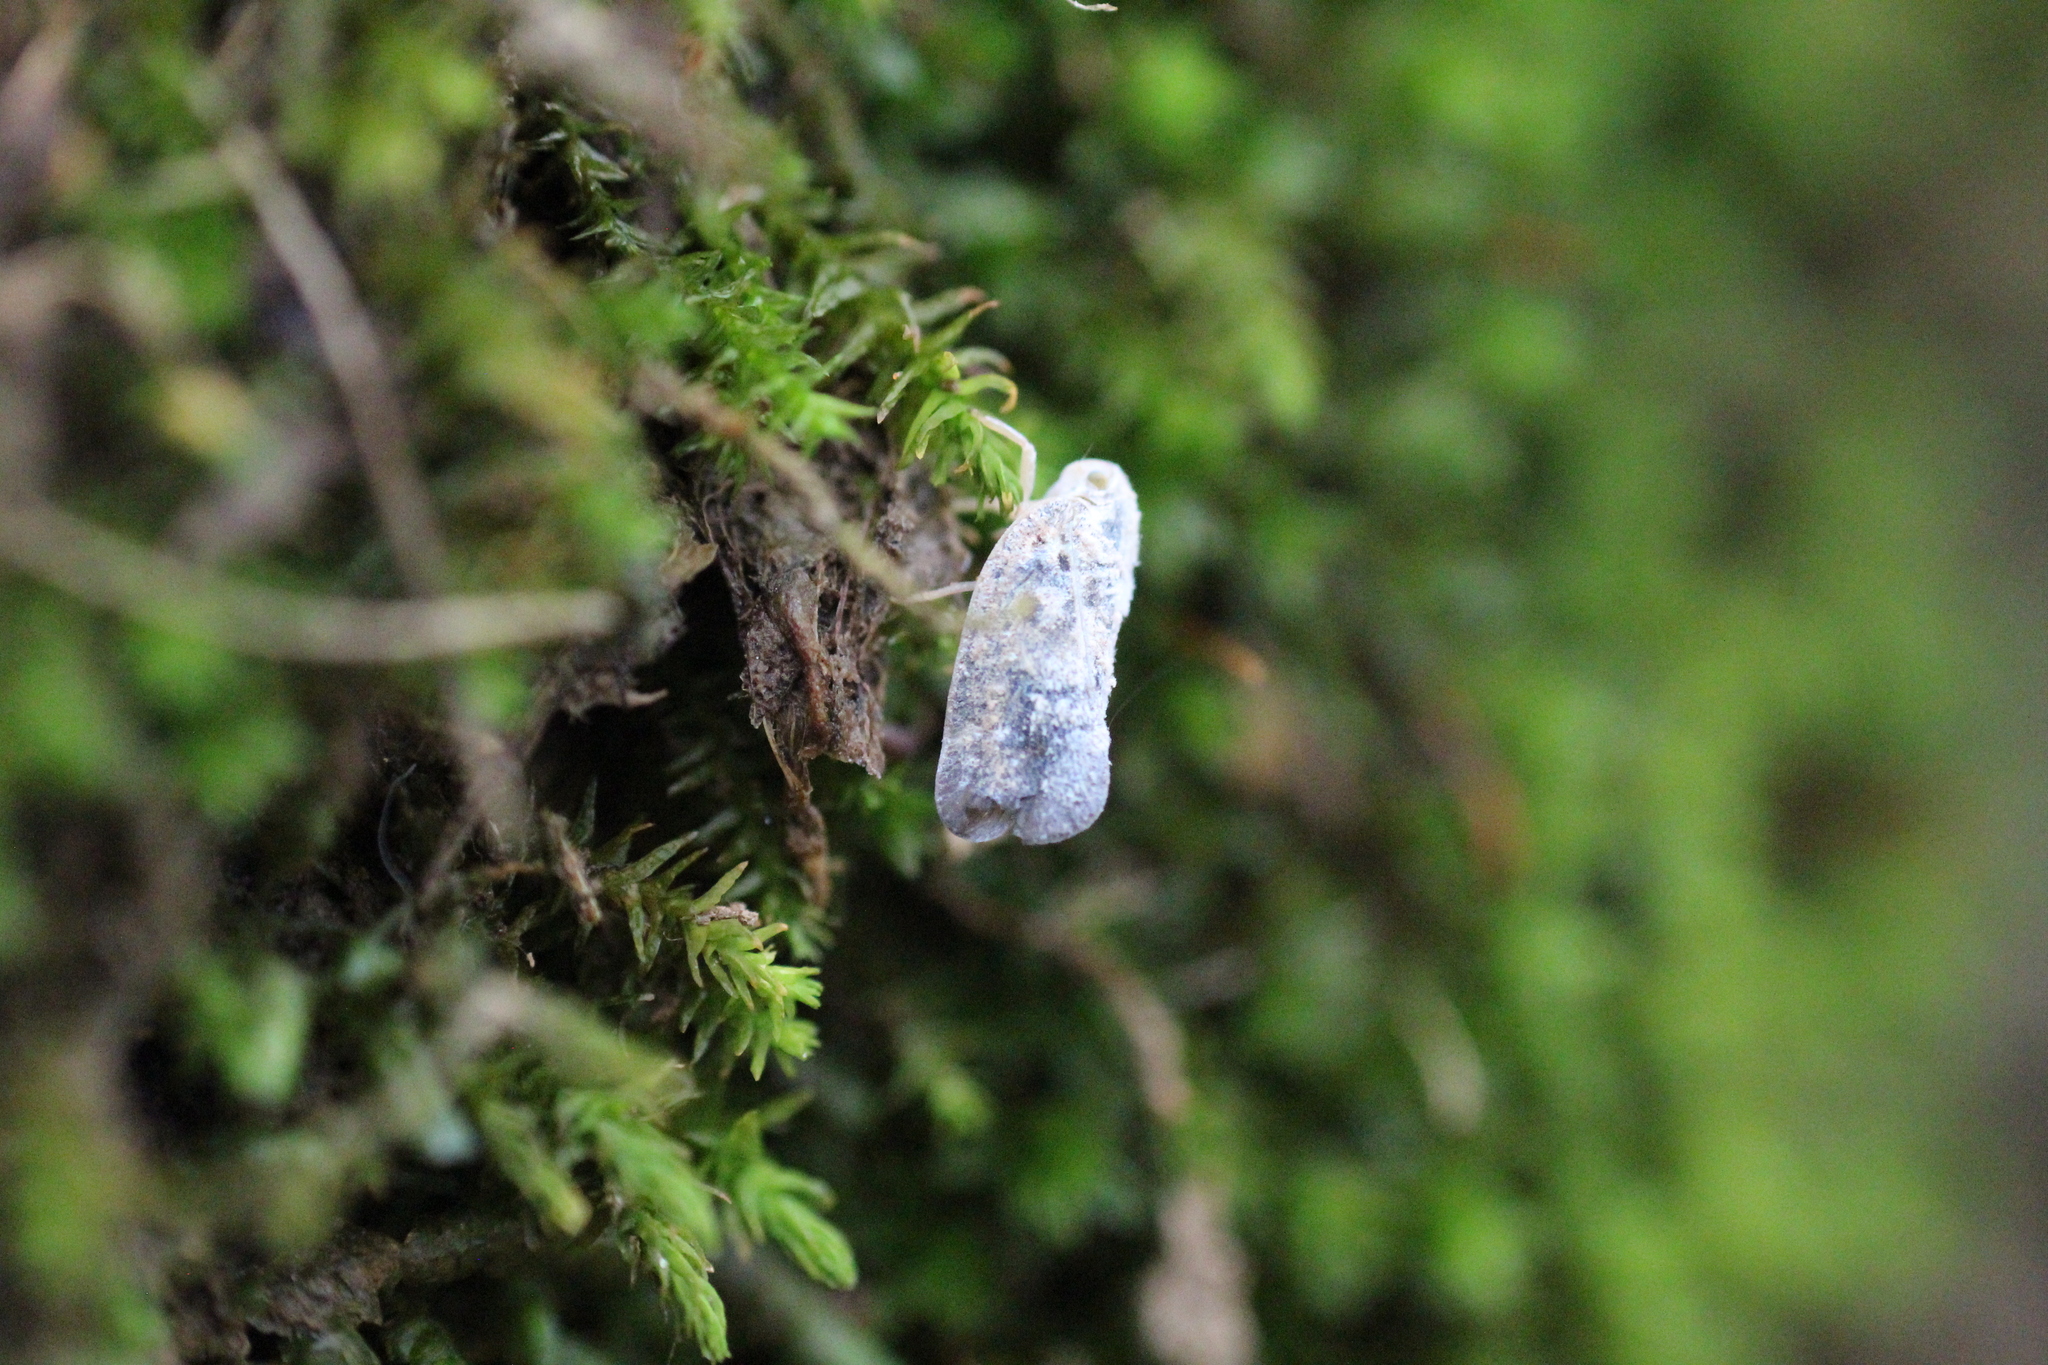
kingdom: Animalia
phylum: Arthropoda
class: Insecta
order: Hemiptera
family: Flatidae
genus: Metcalfa
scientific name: Metcalfa pruinosa
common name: Citrus flatid planthopper
